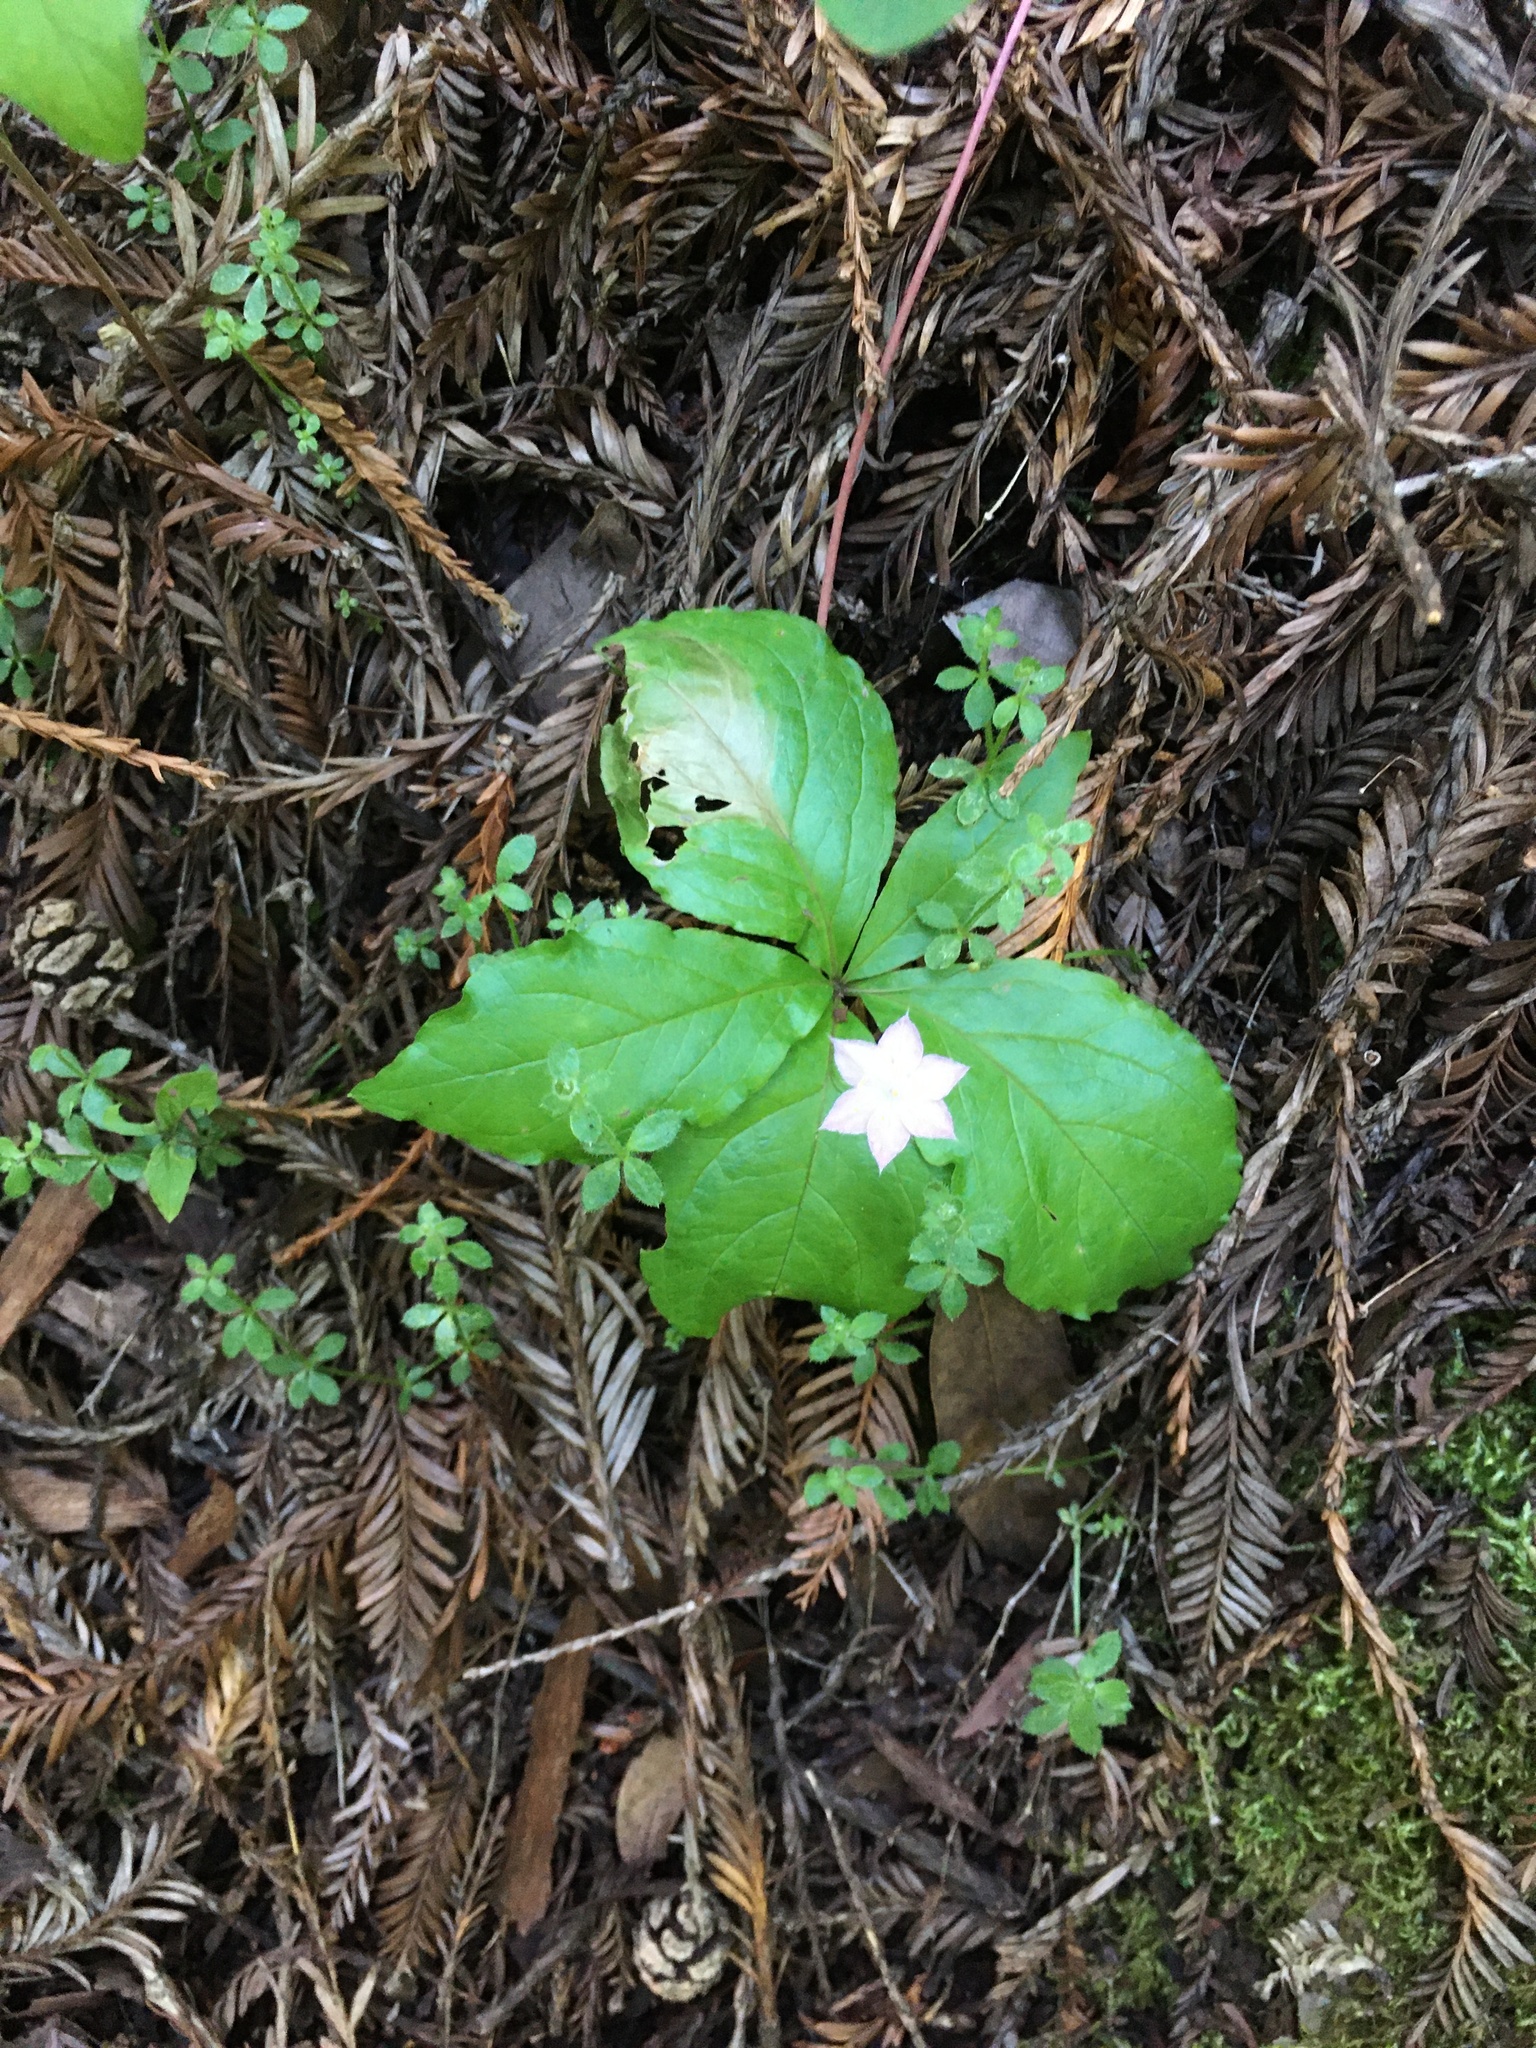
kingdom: Plantae
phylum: Tracheophyta
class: Magnoliopsida
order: Ericales
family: Primulaceae
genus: Lysimachia
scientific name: Lysimachia latifolia
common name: Pacific starflower
